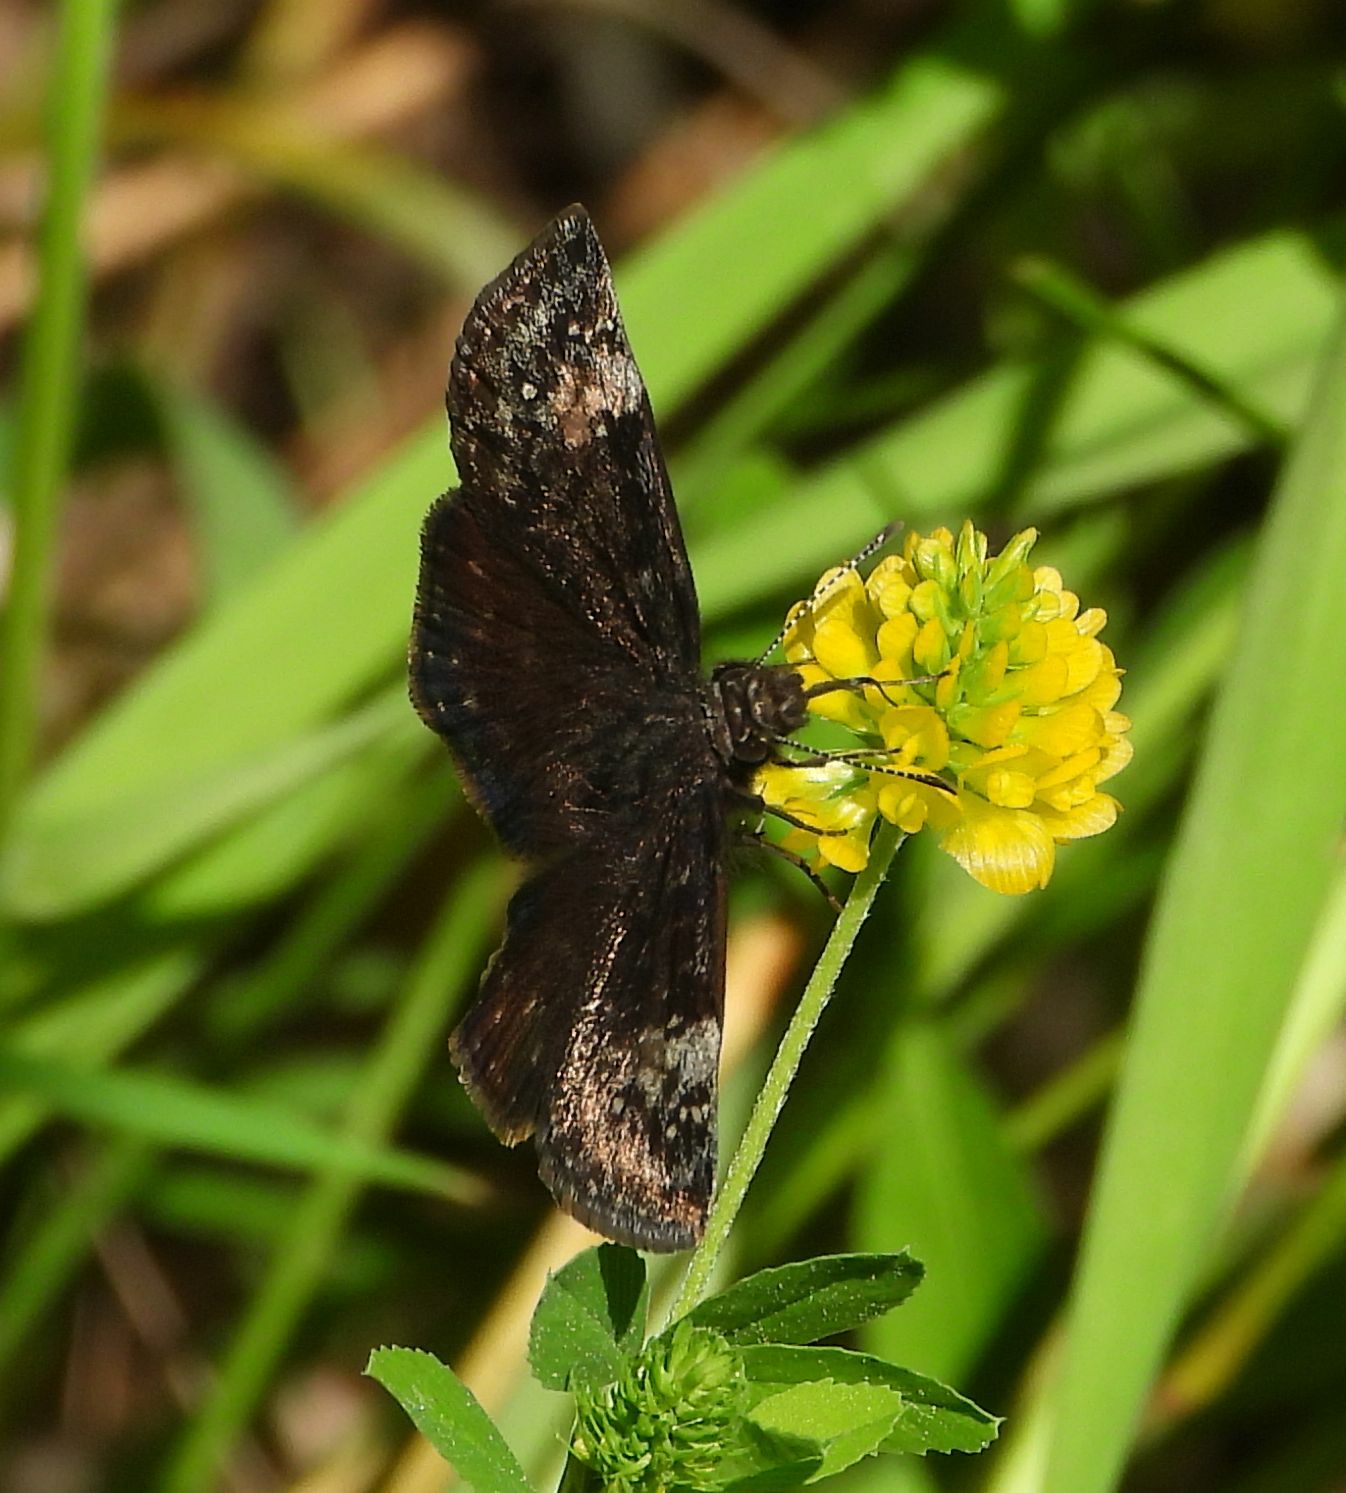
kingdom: Animalia
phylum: Arthropoda
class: Insecta
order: Lepidoptera
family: Hesperiidae
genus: Erynnis
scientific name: Erynnis baptisiae
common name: Wild indigo duskywing
